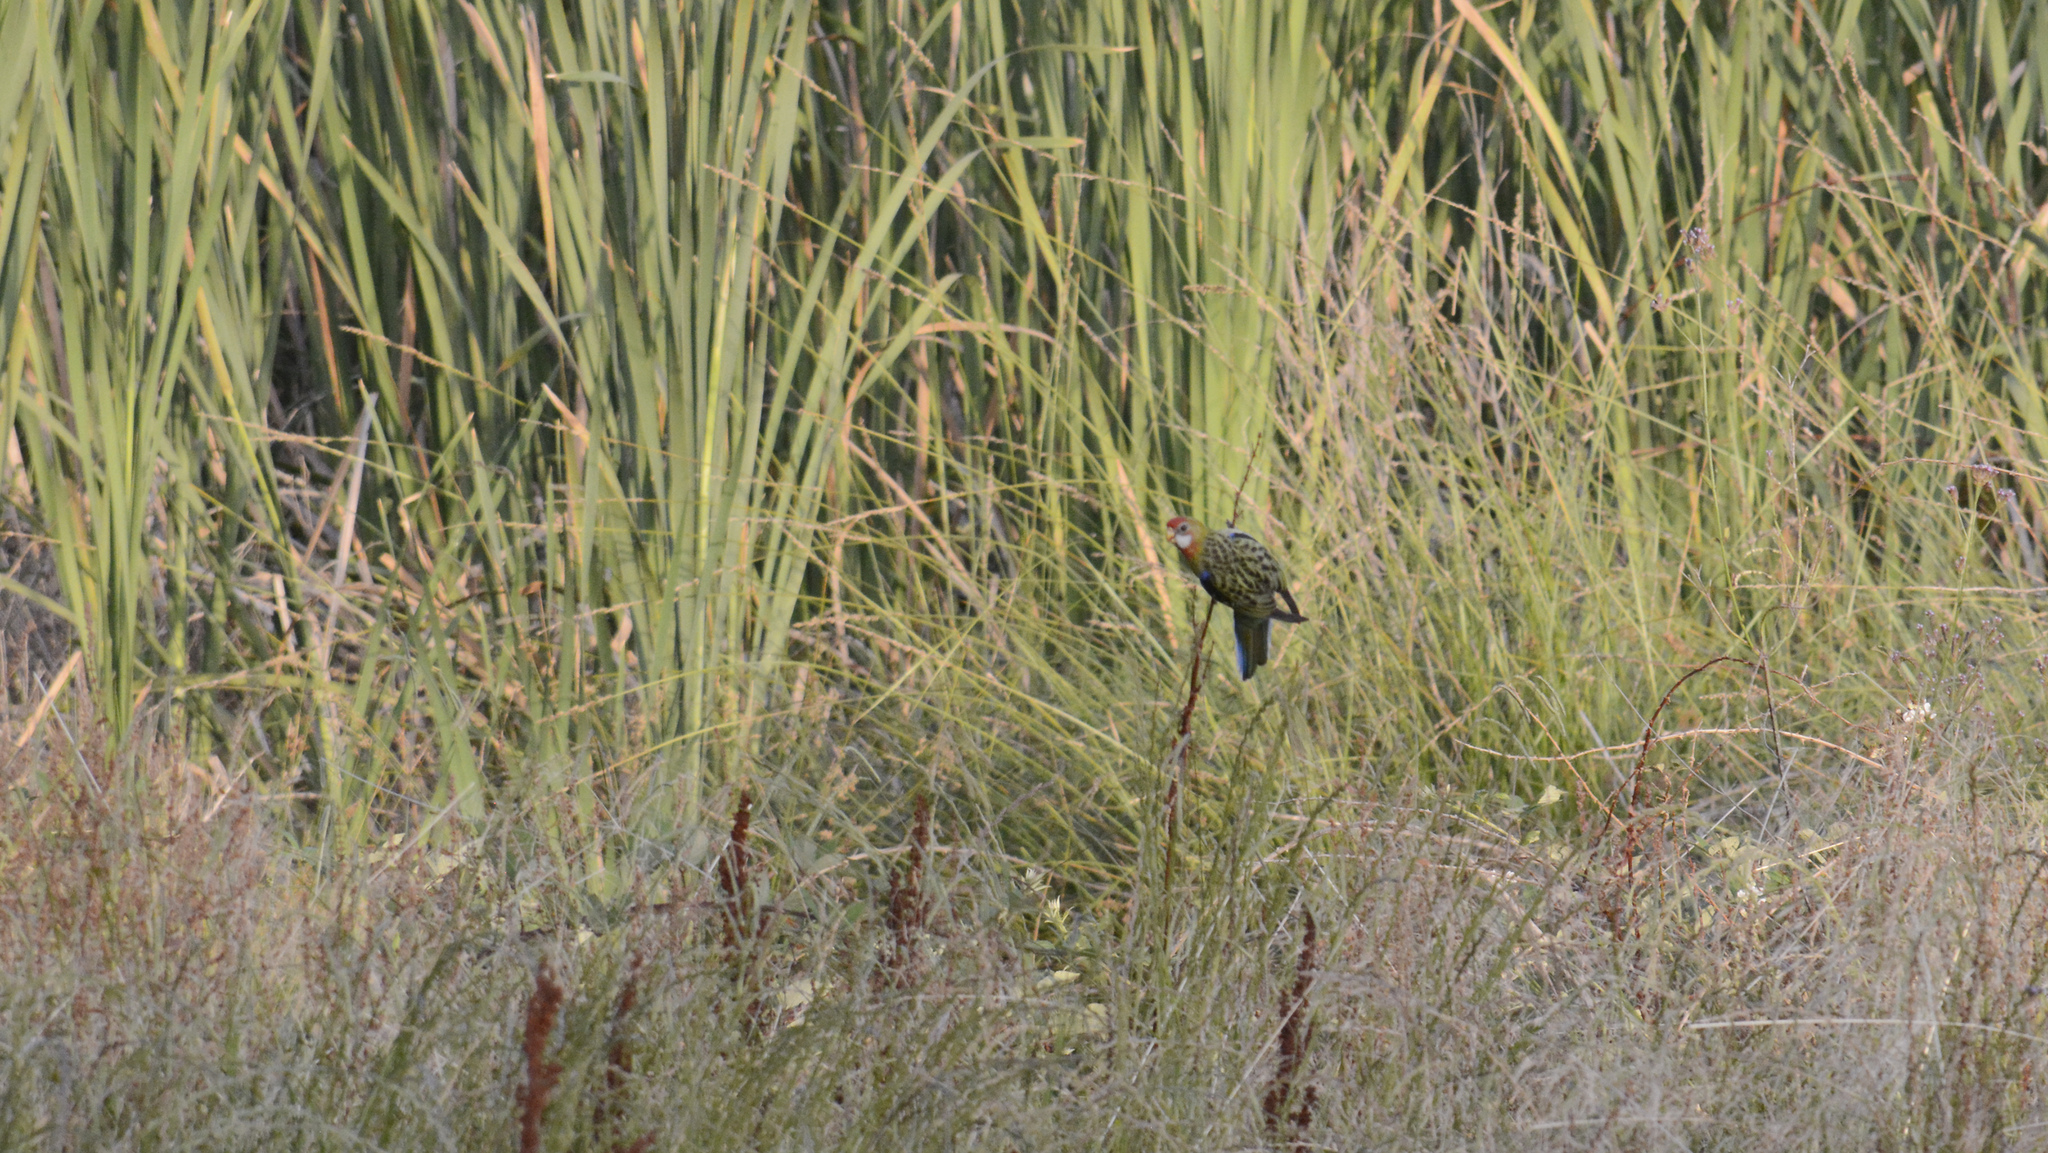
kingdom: Animalia
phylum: Chordata
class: Aves
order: Psittaciformes
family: Psittacidae
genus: Platycercus
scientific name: Platycercus eximius
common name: Eastern rosella
